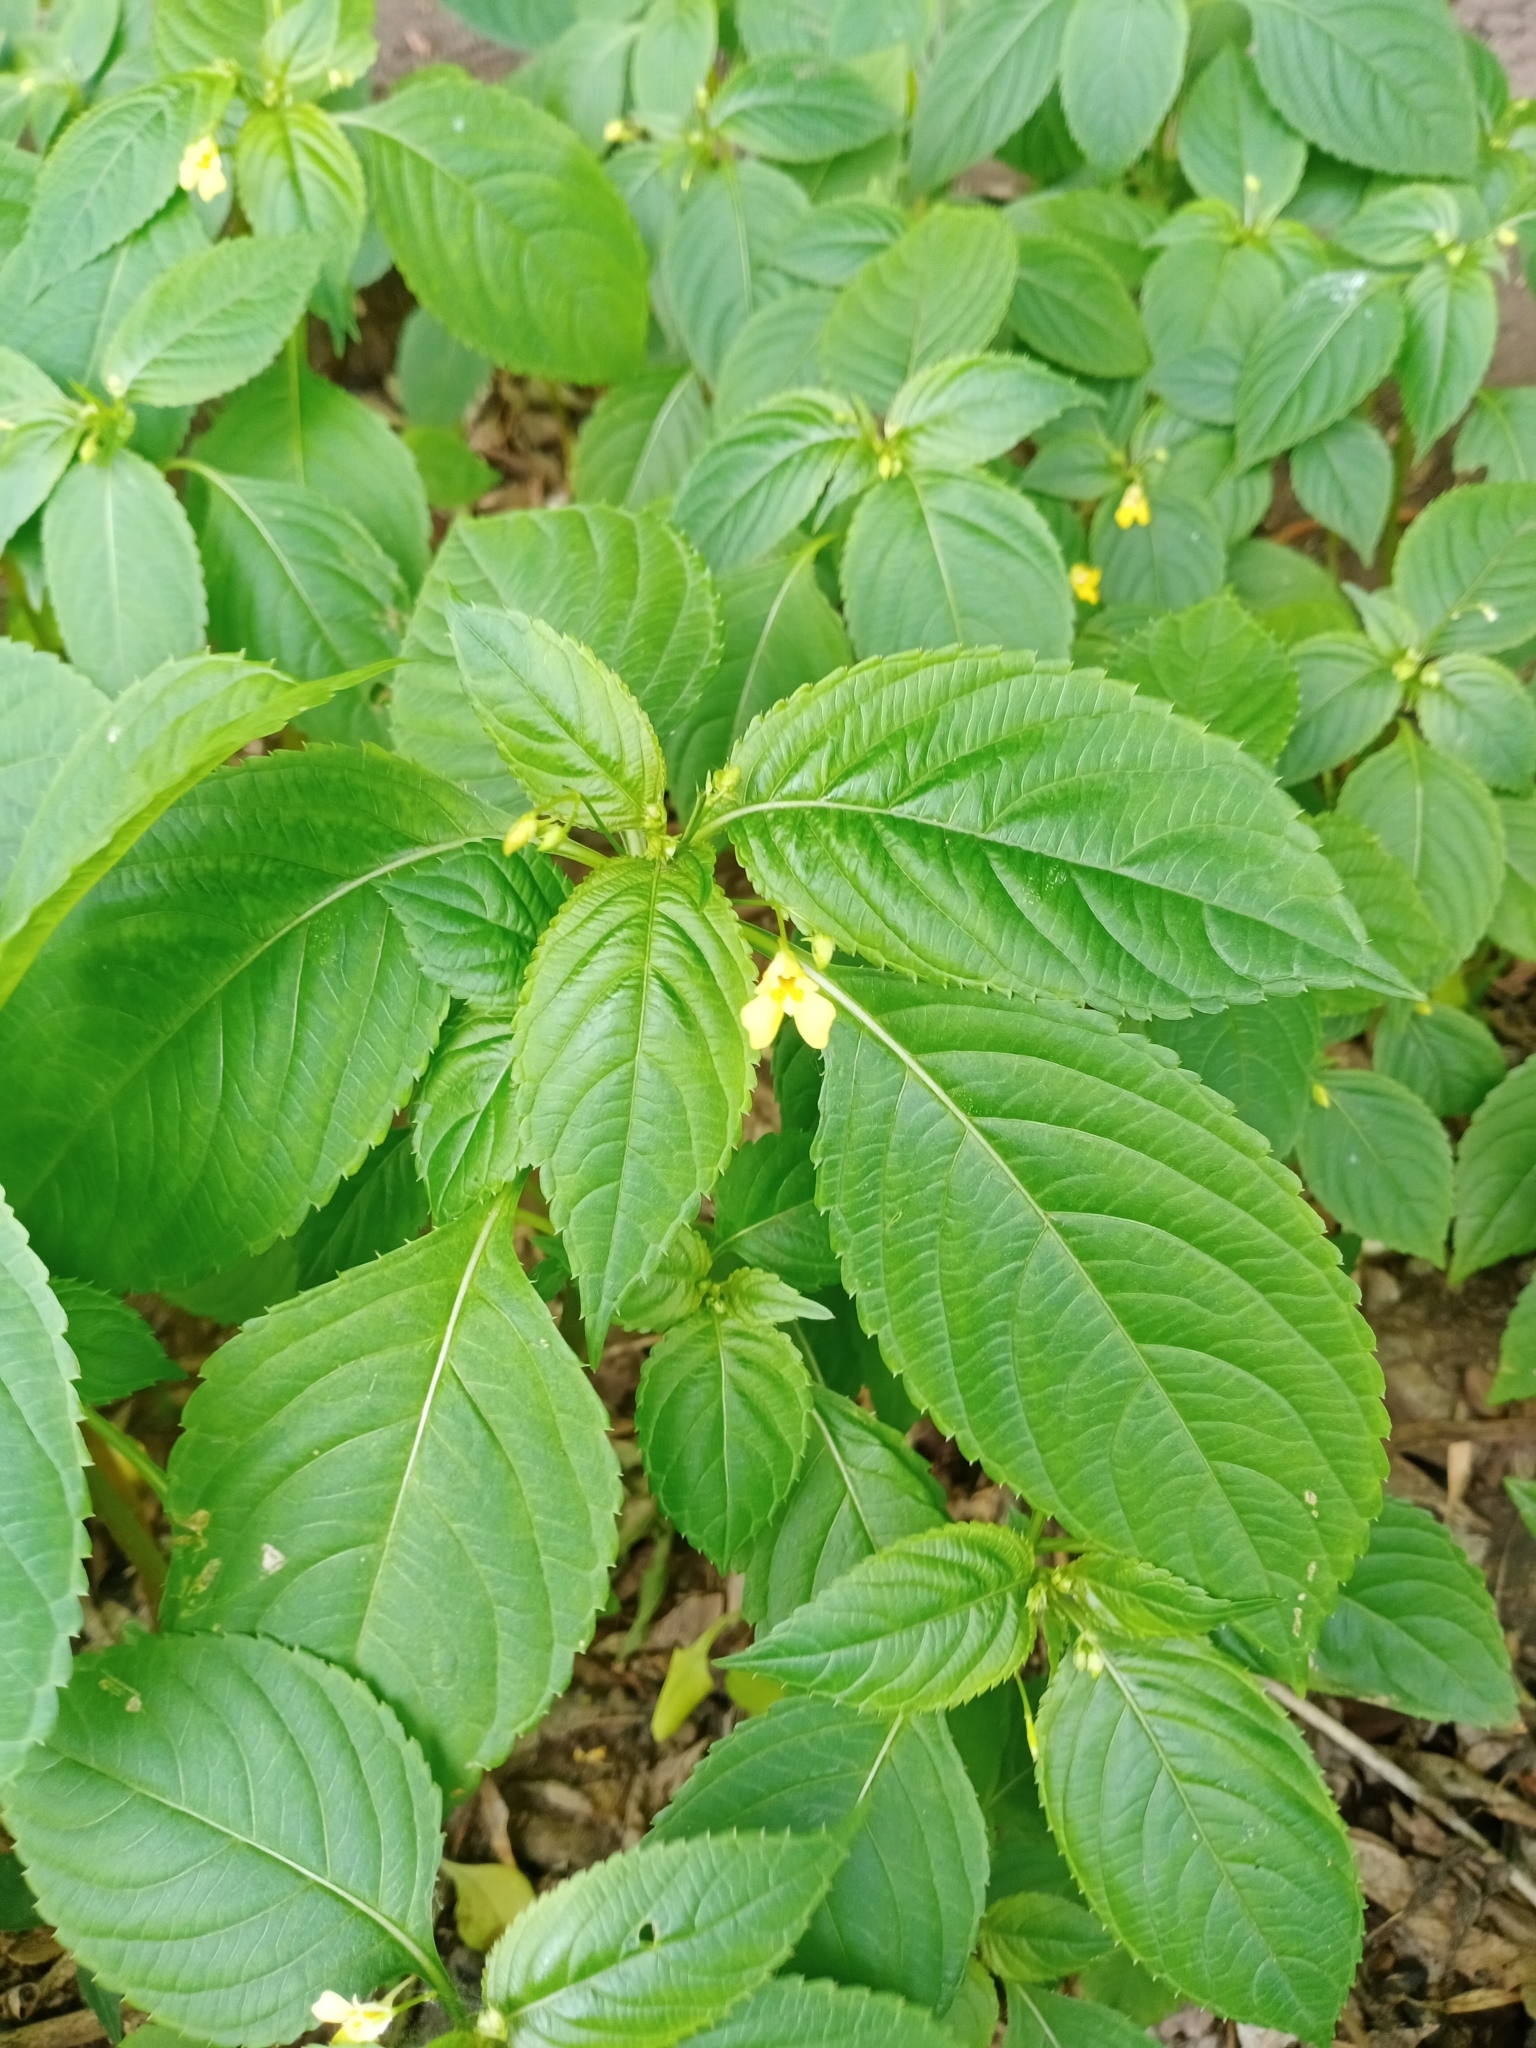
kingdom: Plantae
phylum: Tracheophyta
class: Magnoliopsida
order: Ericales
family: Balsaminaceae
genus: Impatiens
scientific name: Impatiens parviflora
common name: Small balsam
